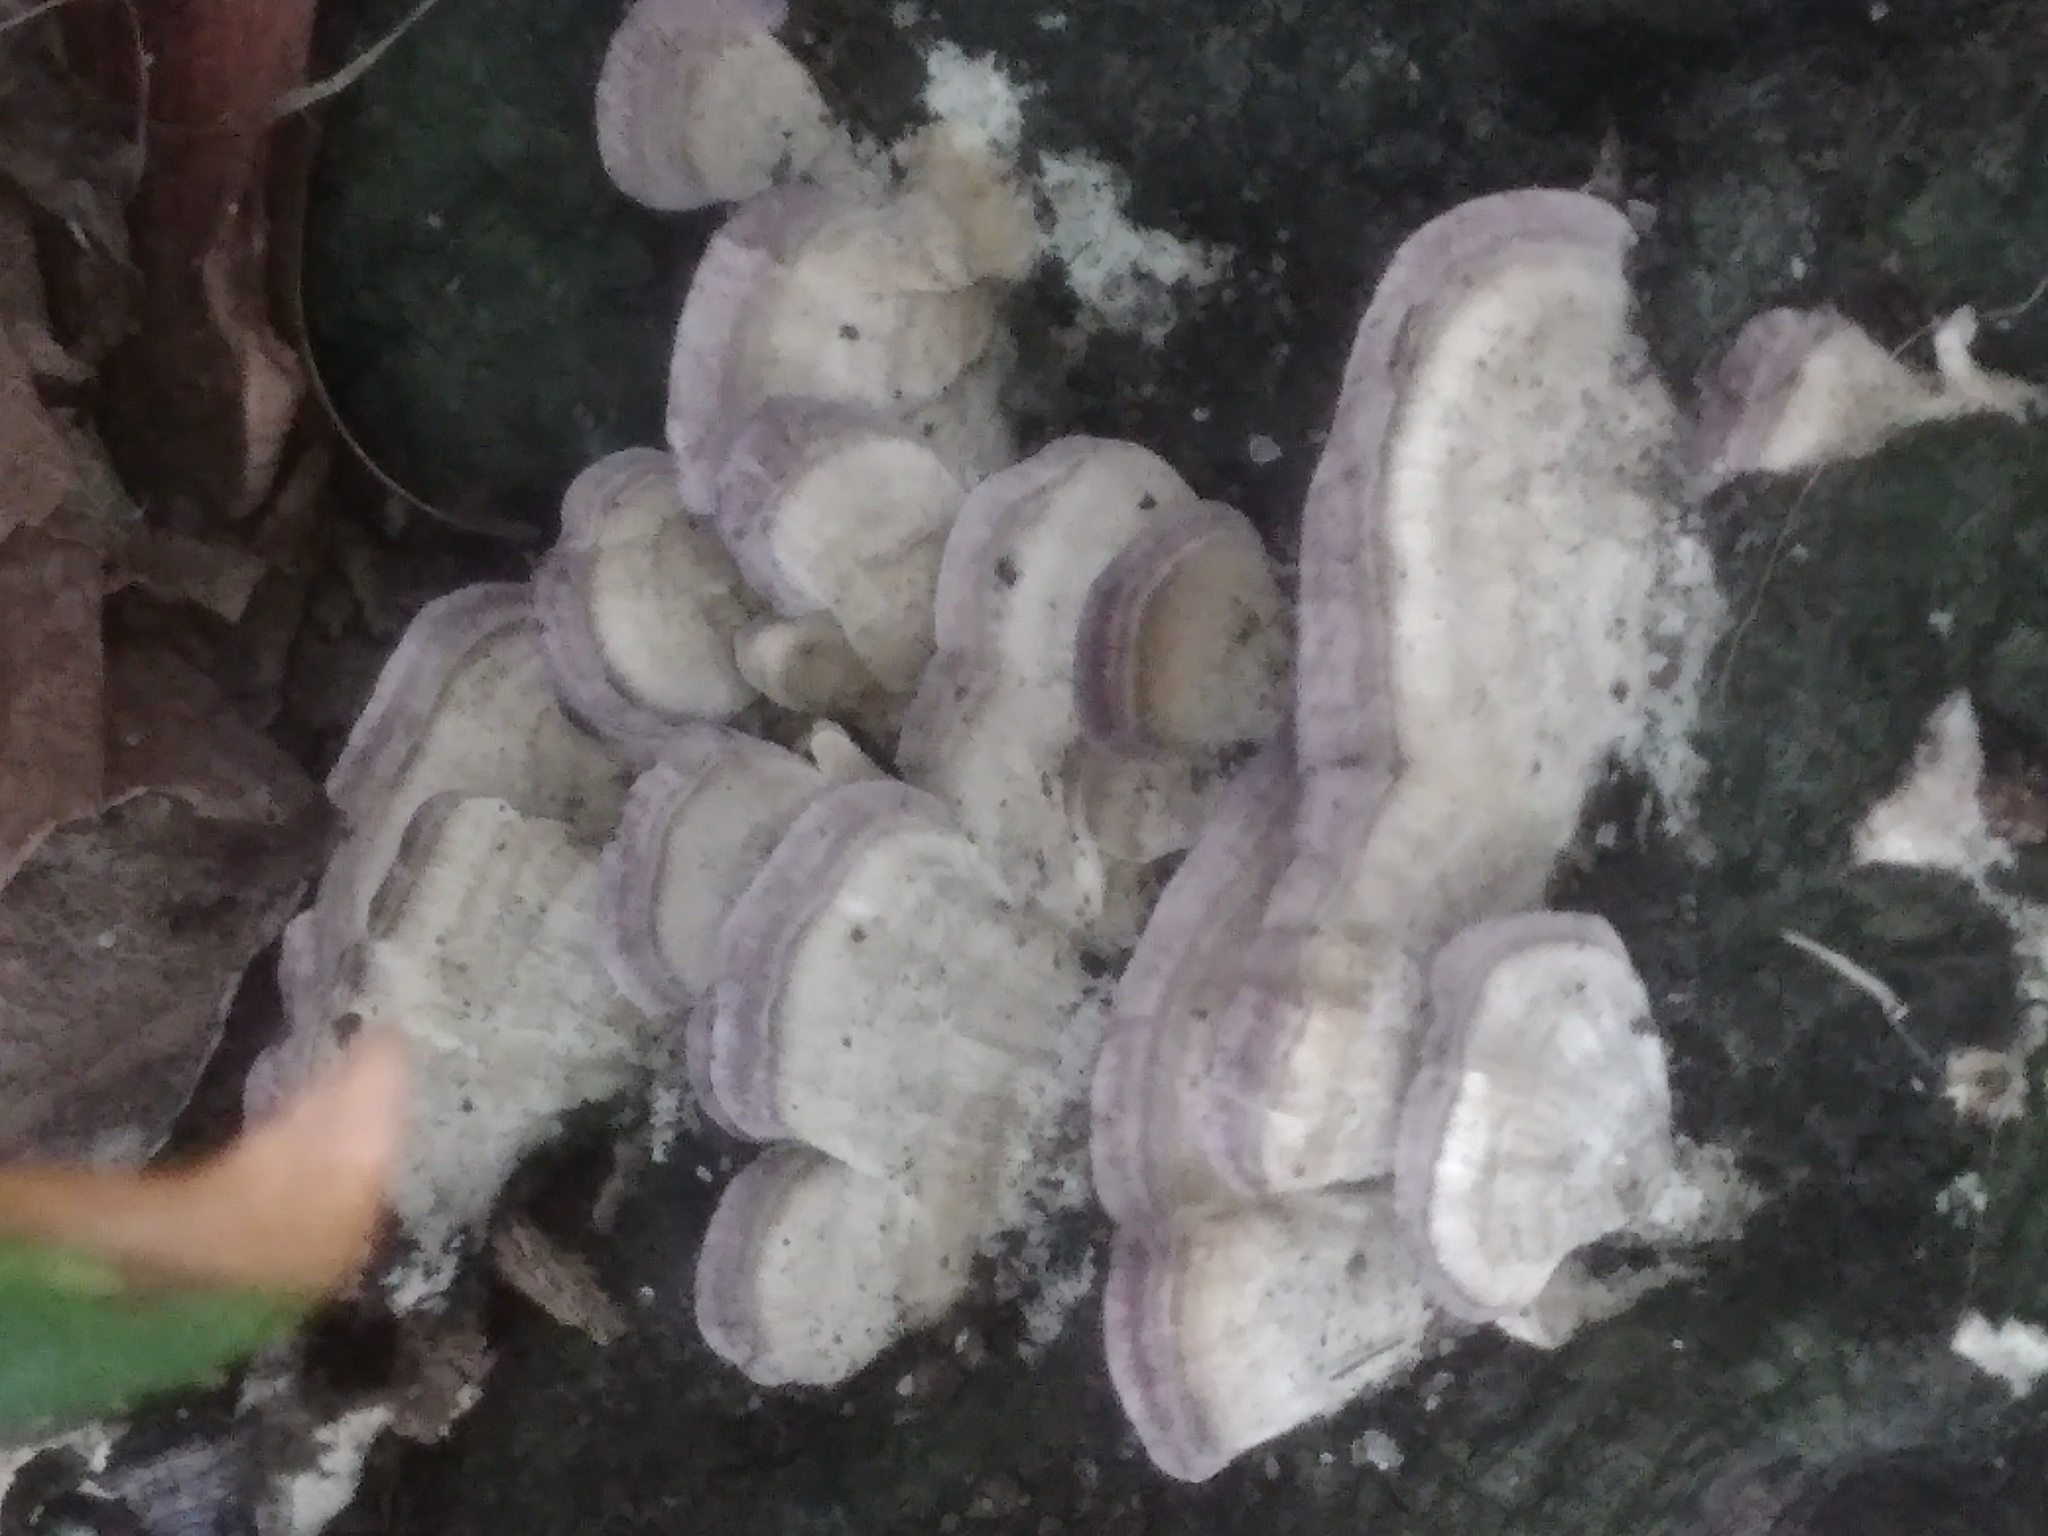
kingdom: Fungi
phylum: Basidiomycota
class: Agaricomycetes
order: Hymenochaetales
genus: Trichaptum
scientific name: Trichaptum biforme
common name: Violet-toothed polypore
